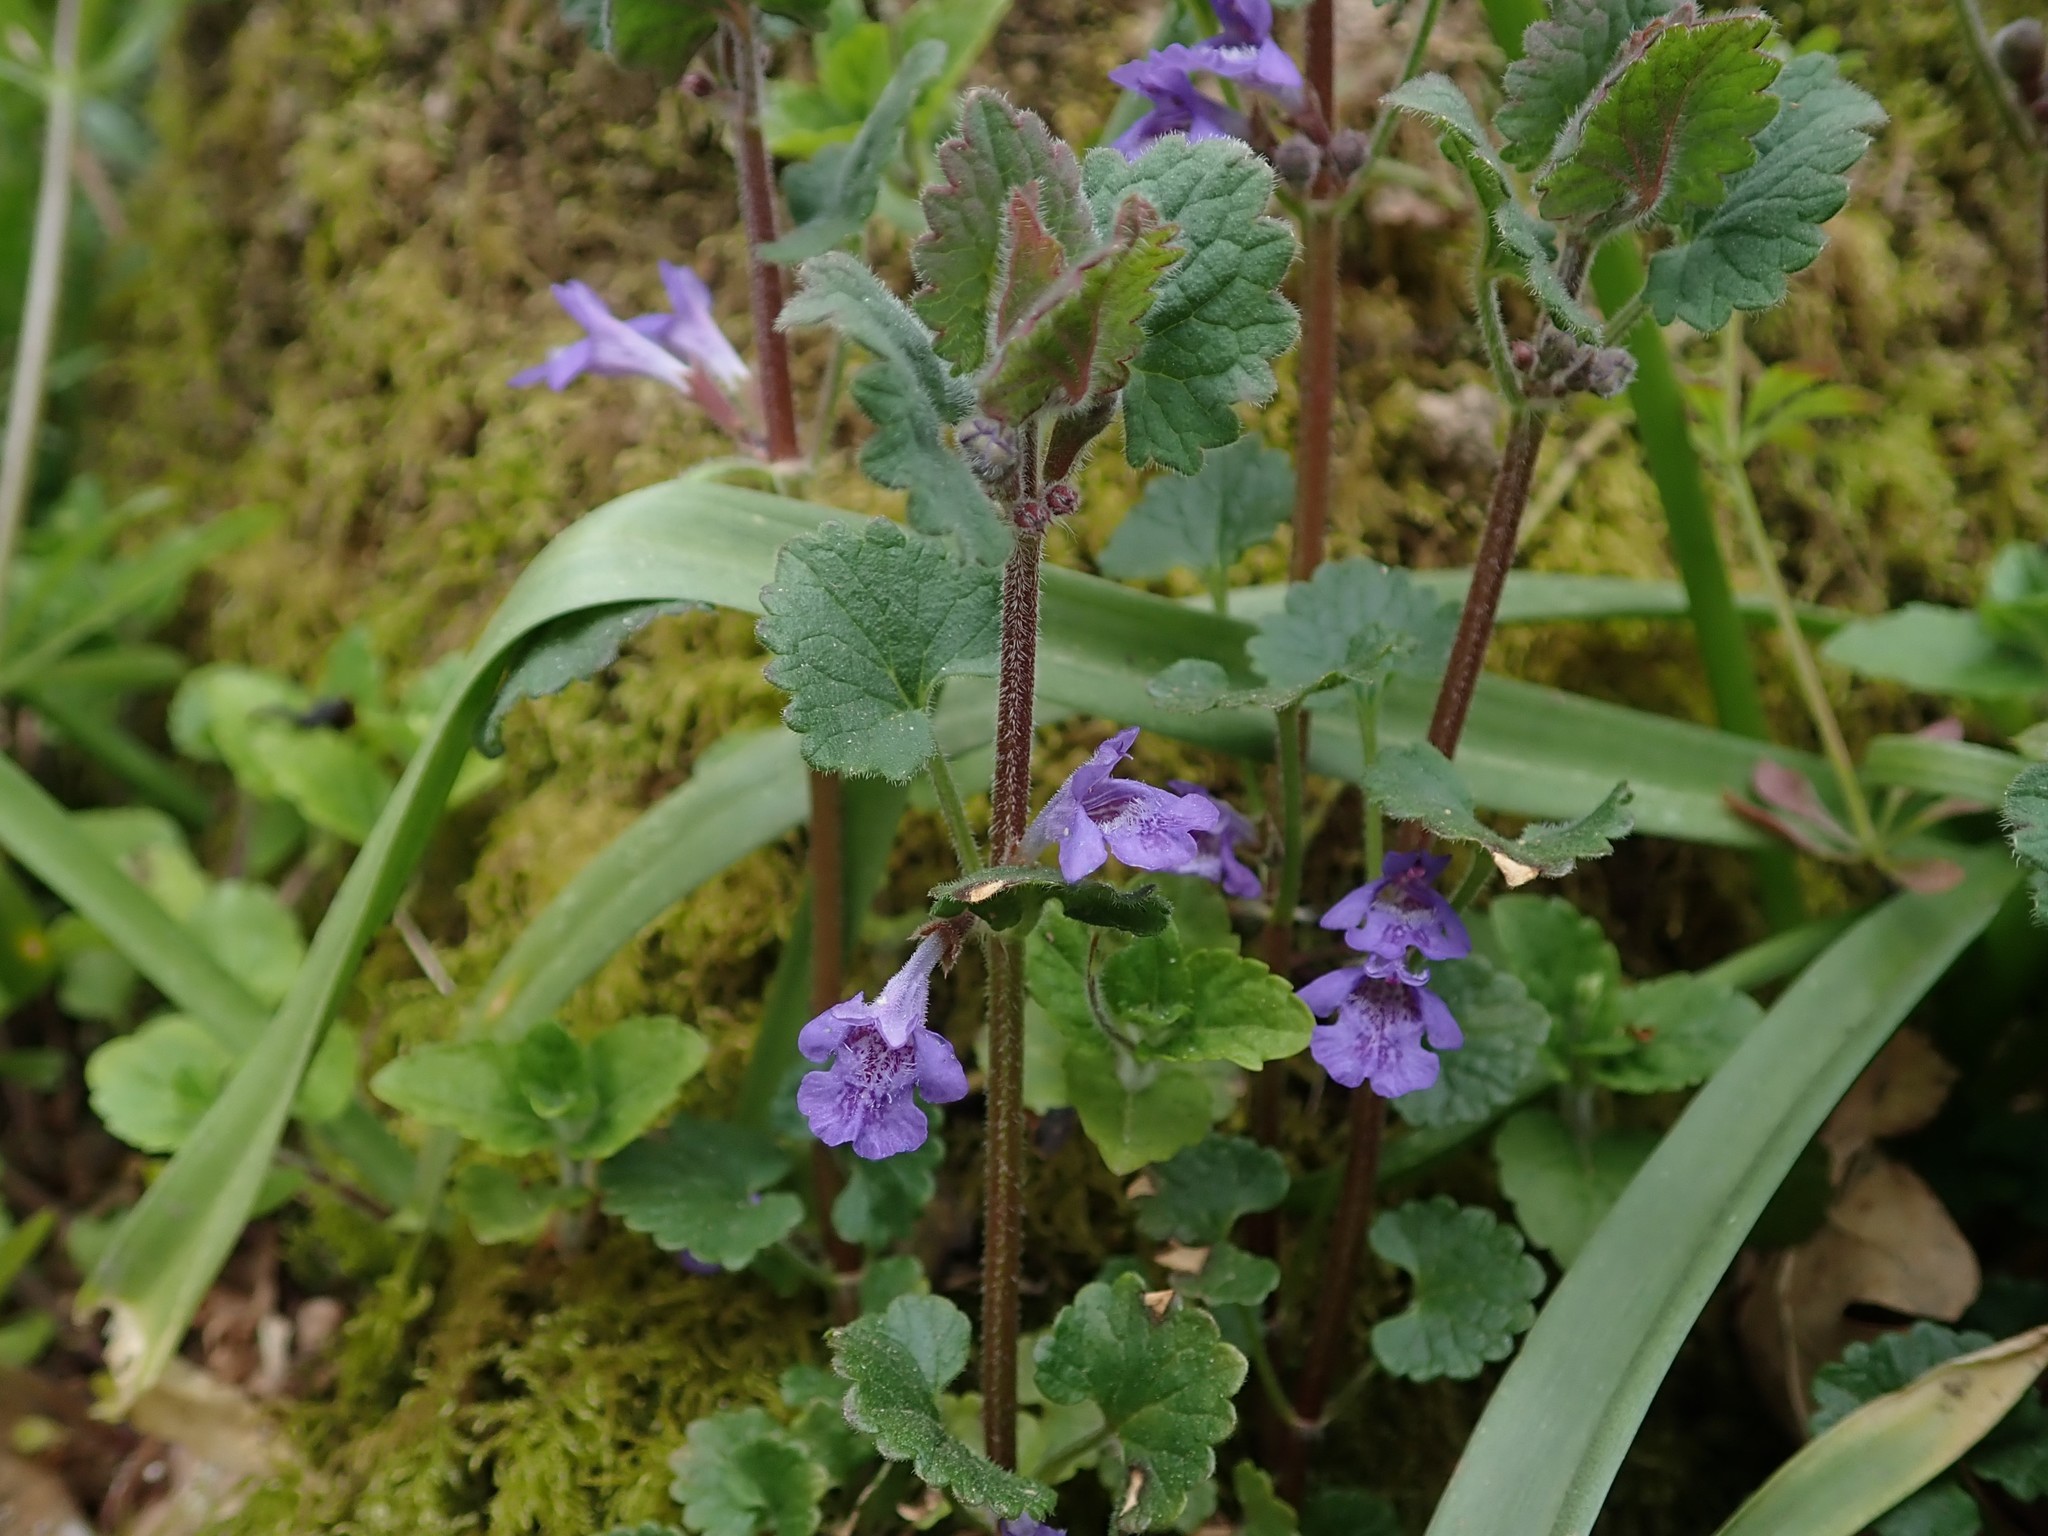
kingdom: Plantae
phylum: Tracheophyta
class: Magnoliopsida
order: Lamiales
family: Lamiaceae
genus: Glechoma
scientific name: Glechoma hederacea
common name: Ground ivy
